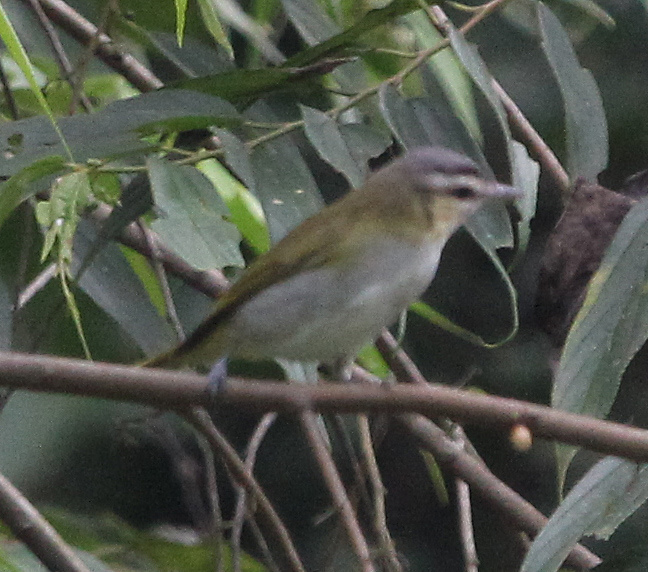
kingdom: Animalia
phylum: Chordata
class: Aves
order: Passeriformes
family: Vireonidae
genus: Vireo
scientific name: Vireo olivaceus
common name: Red-eyed vireo
